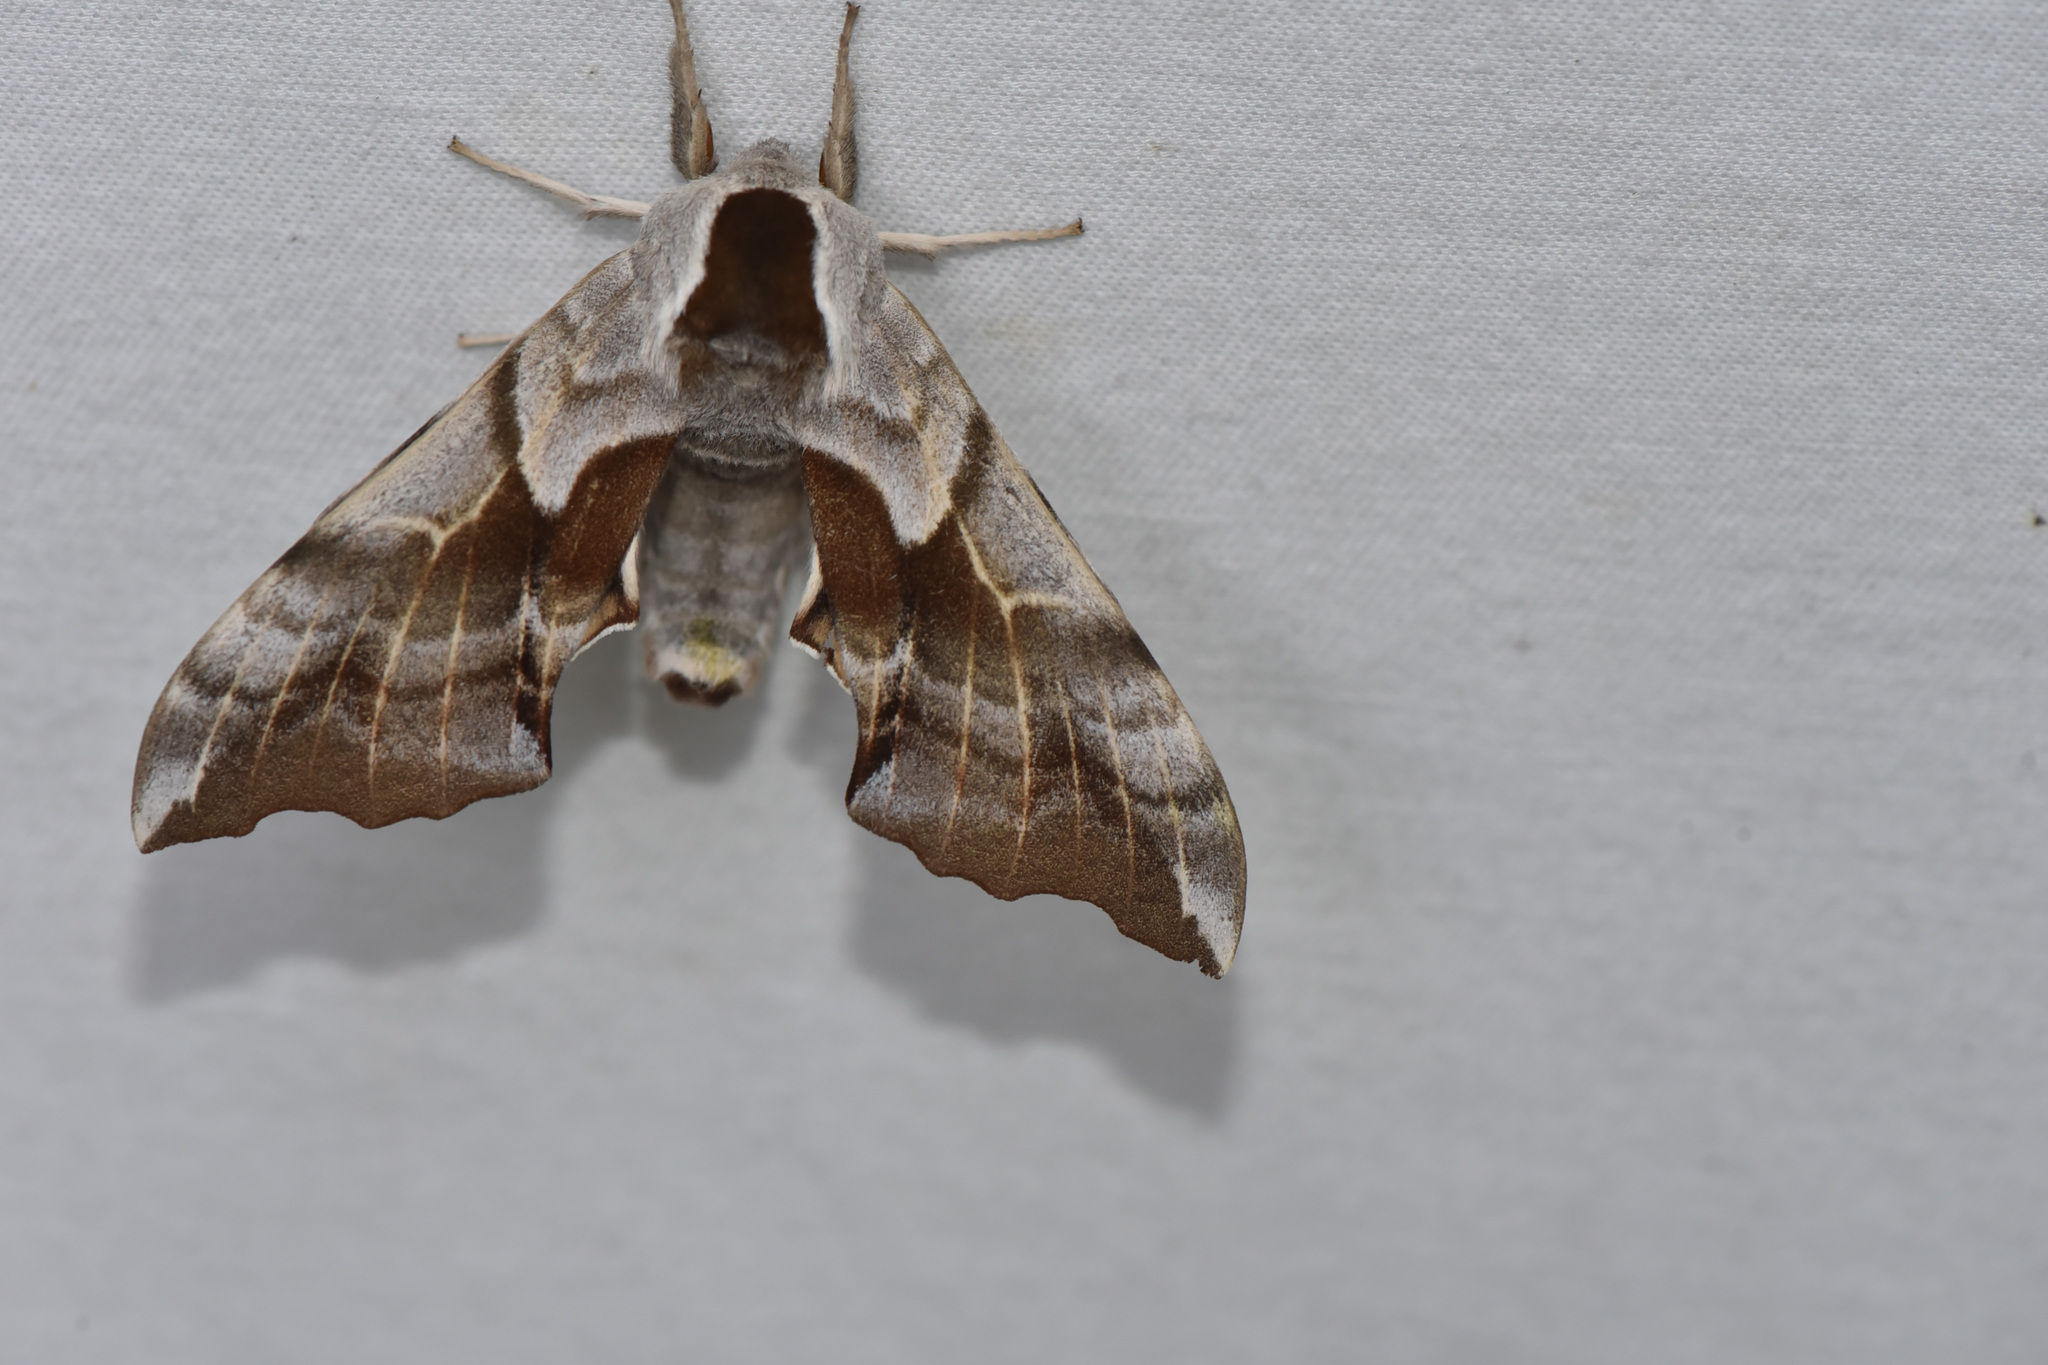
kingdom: Animalia
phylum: Arthropoda
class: Insecta
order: Lepidoptera
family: Sphingidae
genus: Smerinthus
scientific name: Smerinthus cerisyi
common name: Cerisy's sphinx moth
